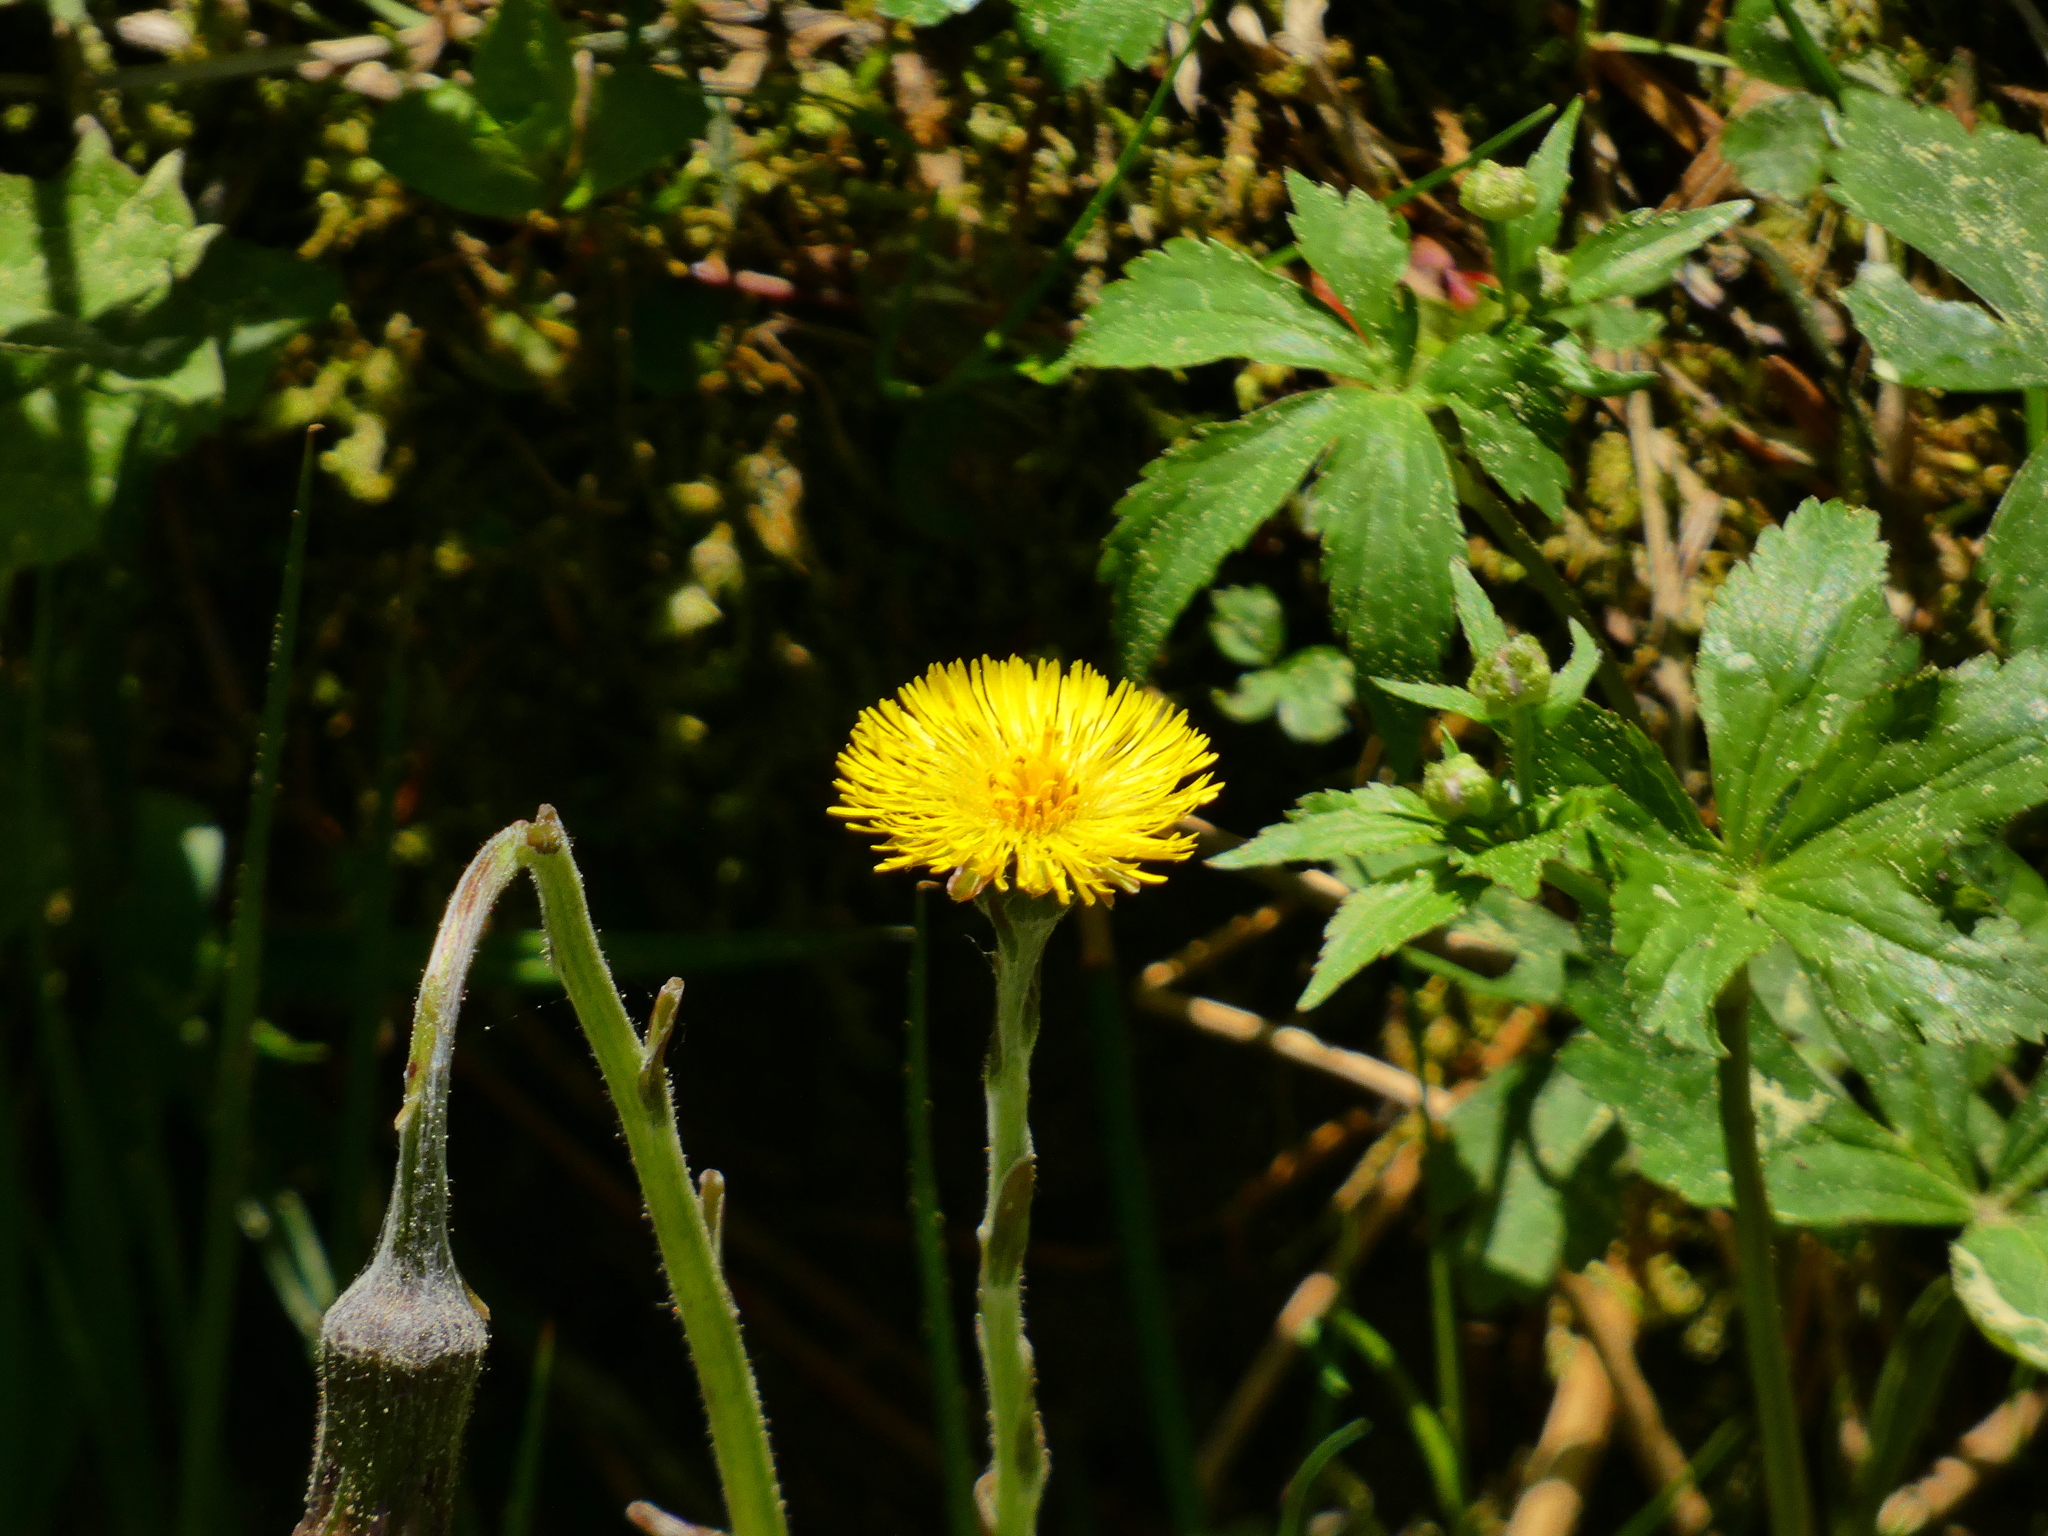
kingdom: Plantae
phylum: Tracheophyta
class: Magnoliopsida
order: Asterales
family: Asteraceae
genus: Tussilago
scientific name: Tussilago farfara
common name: Coltsfoot
